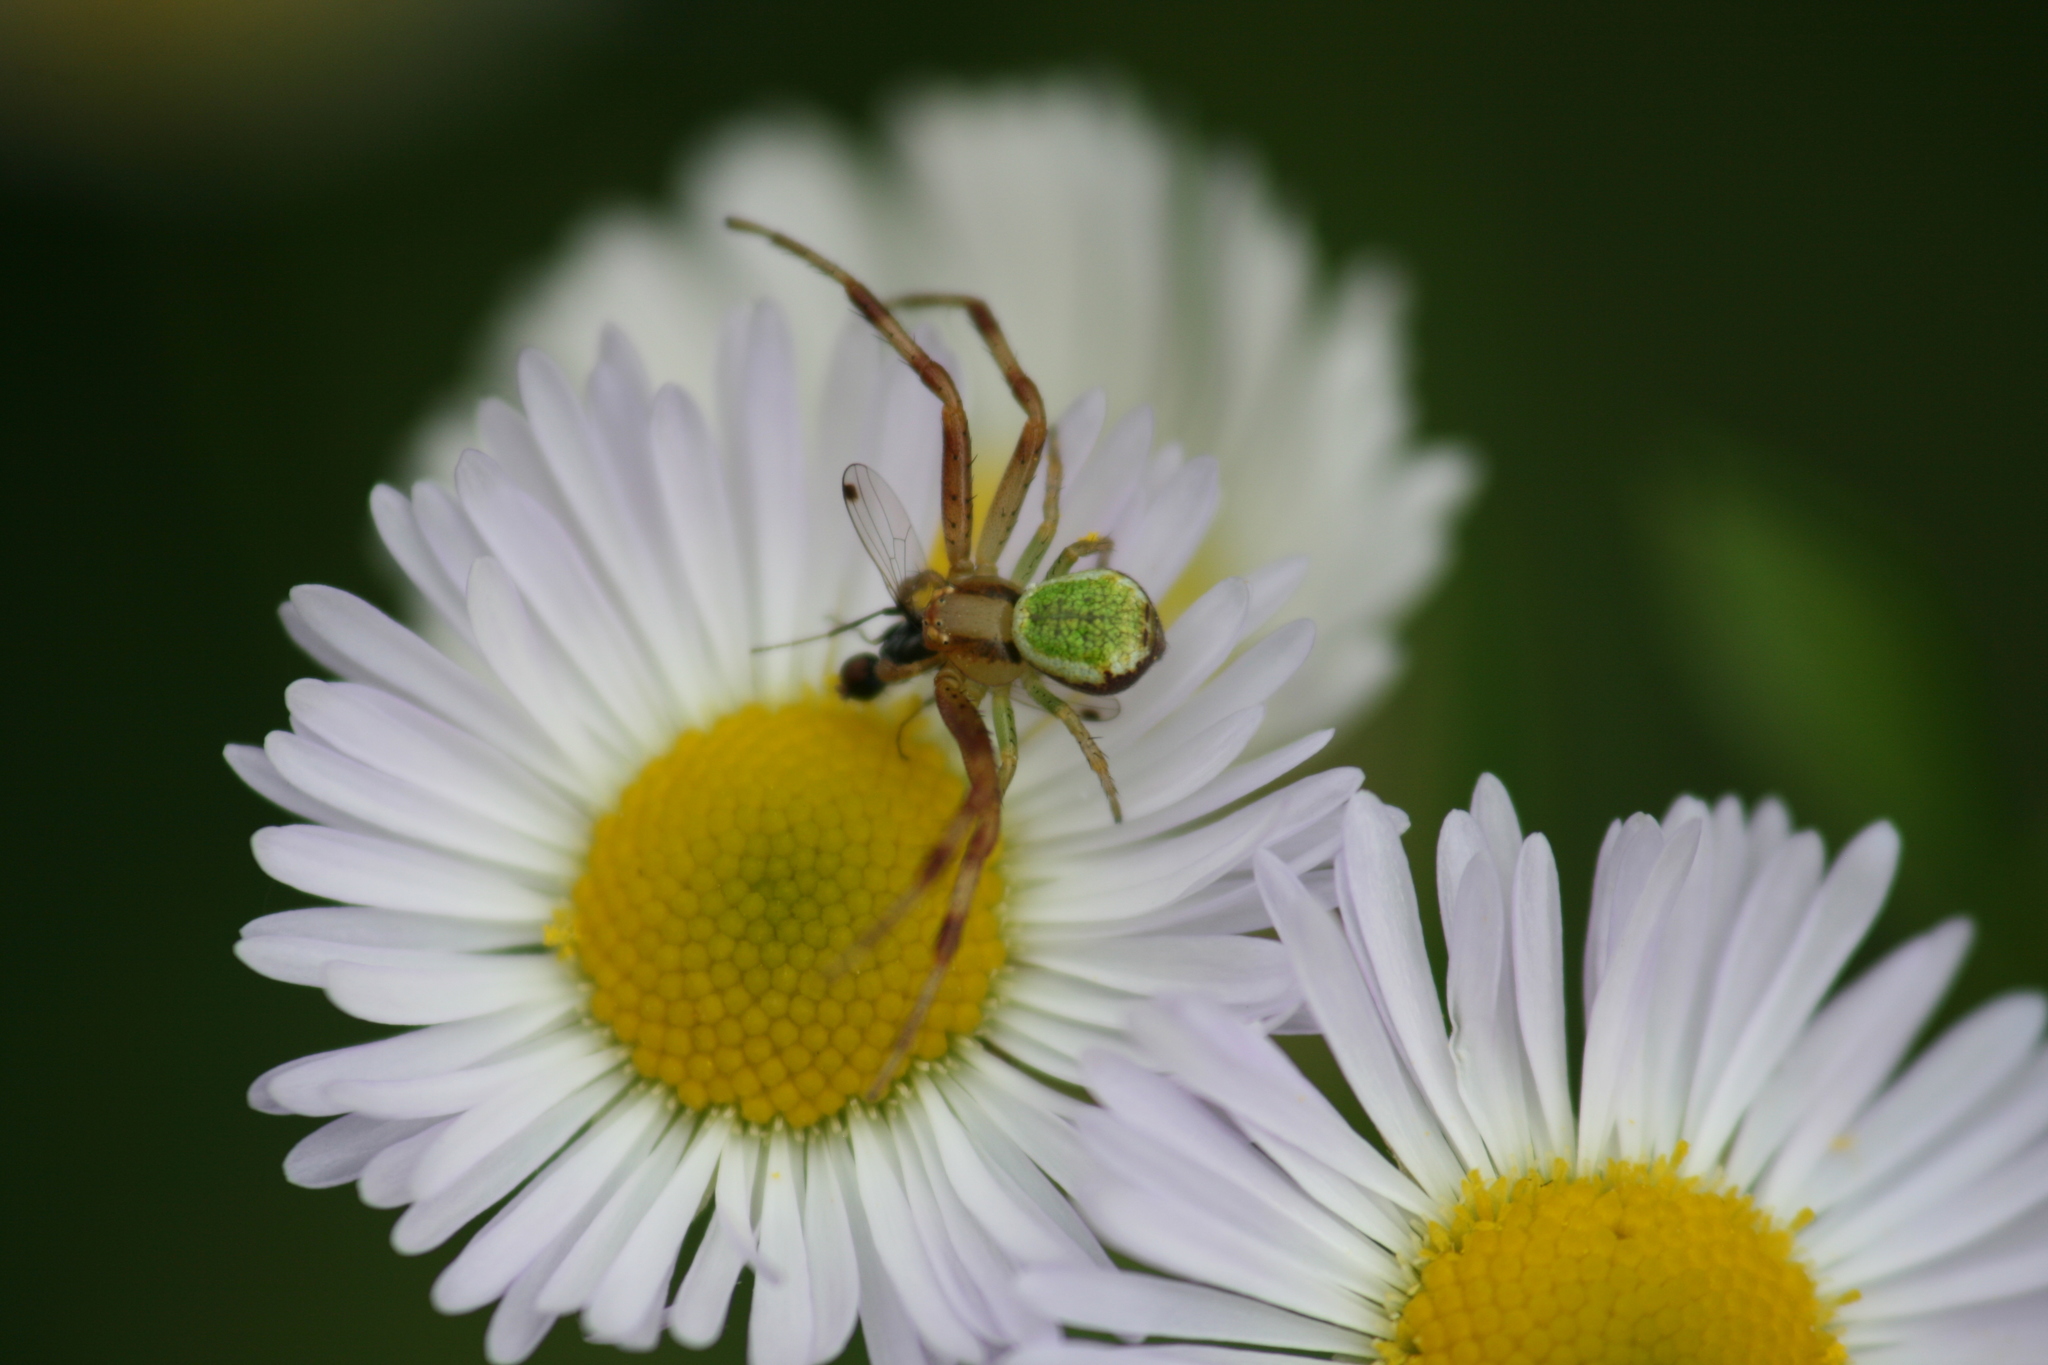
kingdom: Animalia
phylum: Arthropoda
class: Arachnida
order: Araneae
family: Thomisidae
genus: Ebrechtella
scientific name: Ebrechtella tricuspidata
